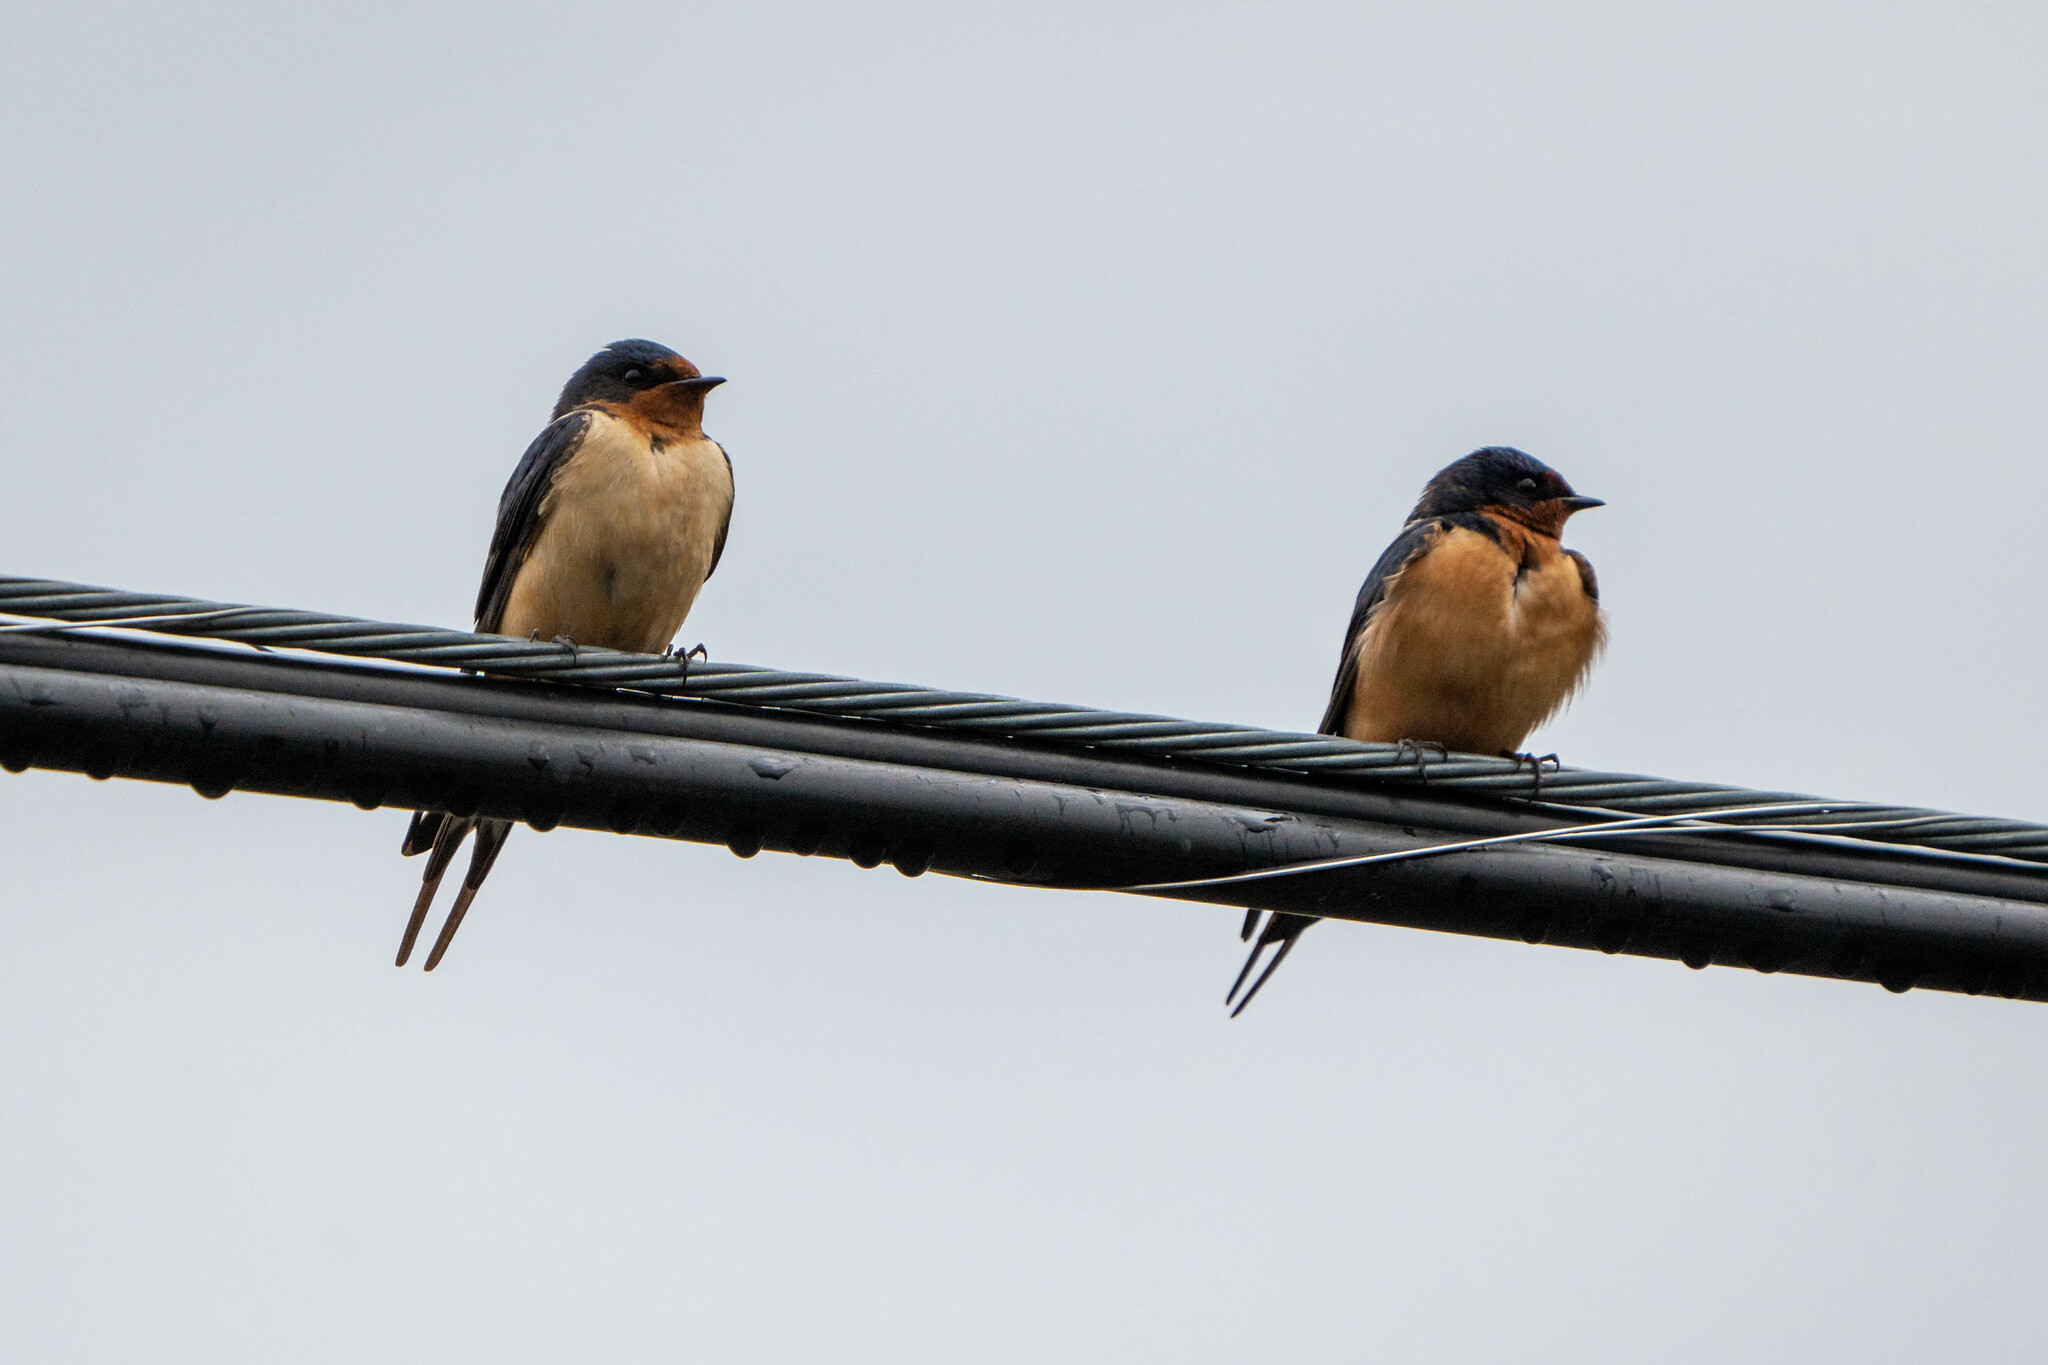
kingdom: Animalia
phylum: Chordata
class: Aves
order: Passeriformes
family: Hirundinidae
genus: Hirundo
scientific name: Hirundo rustica
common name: Barn swallow
